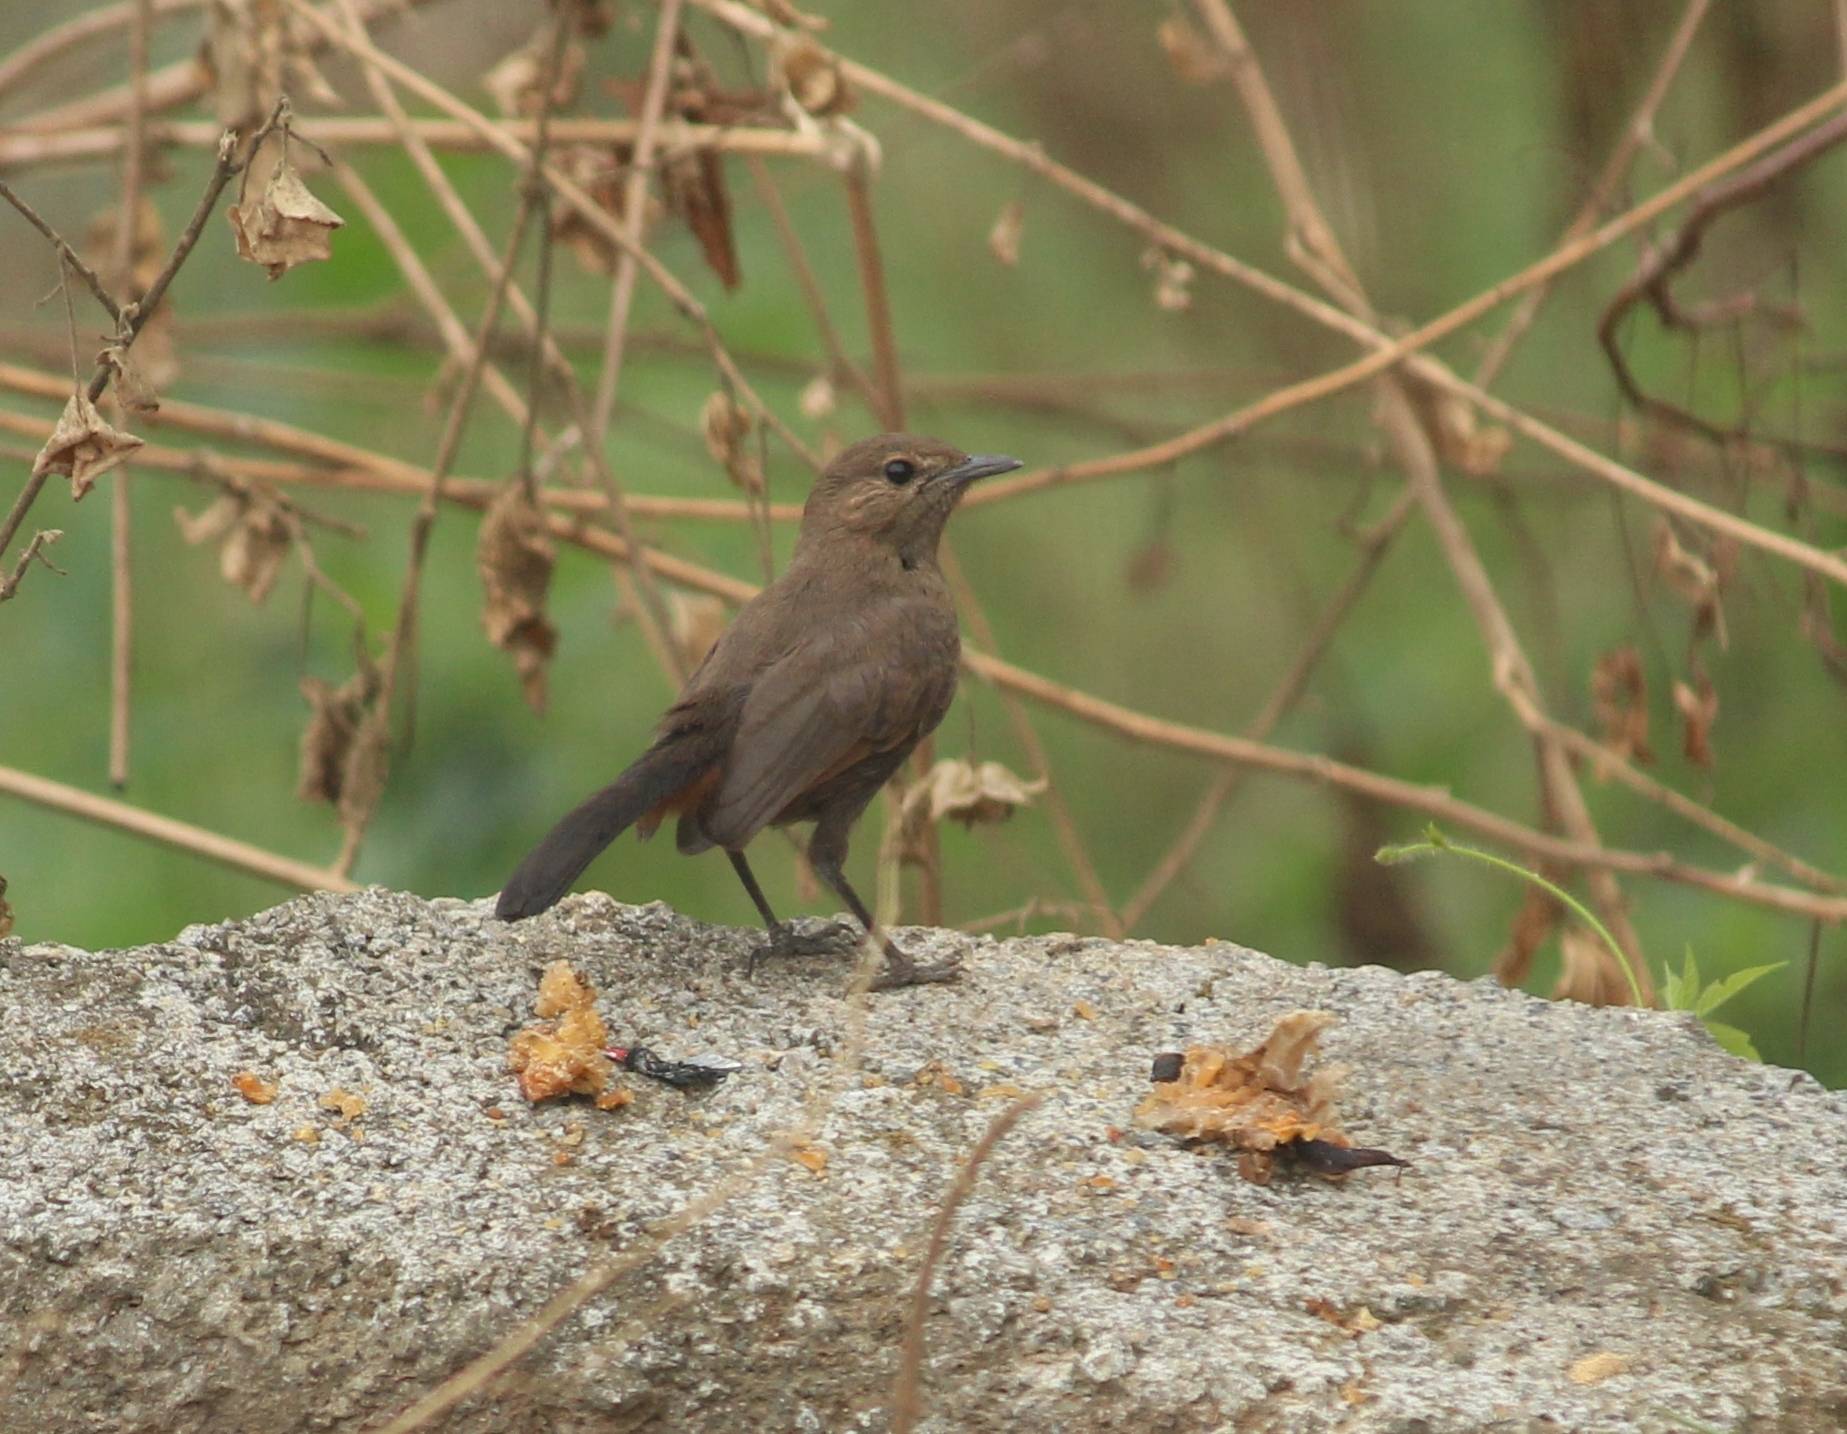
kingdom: Animalia
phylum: Chordata
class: Aves
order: Passeriformes
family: Muscicapidae
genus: Saxicoloides
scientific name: Saxicoloides fulicatus
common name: Indian robin
